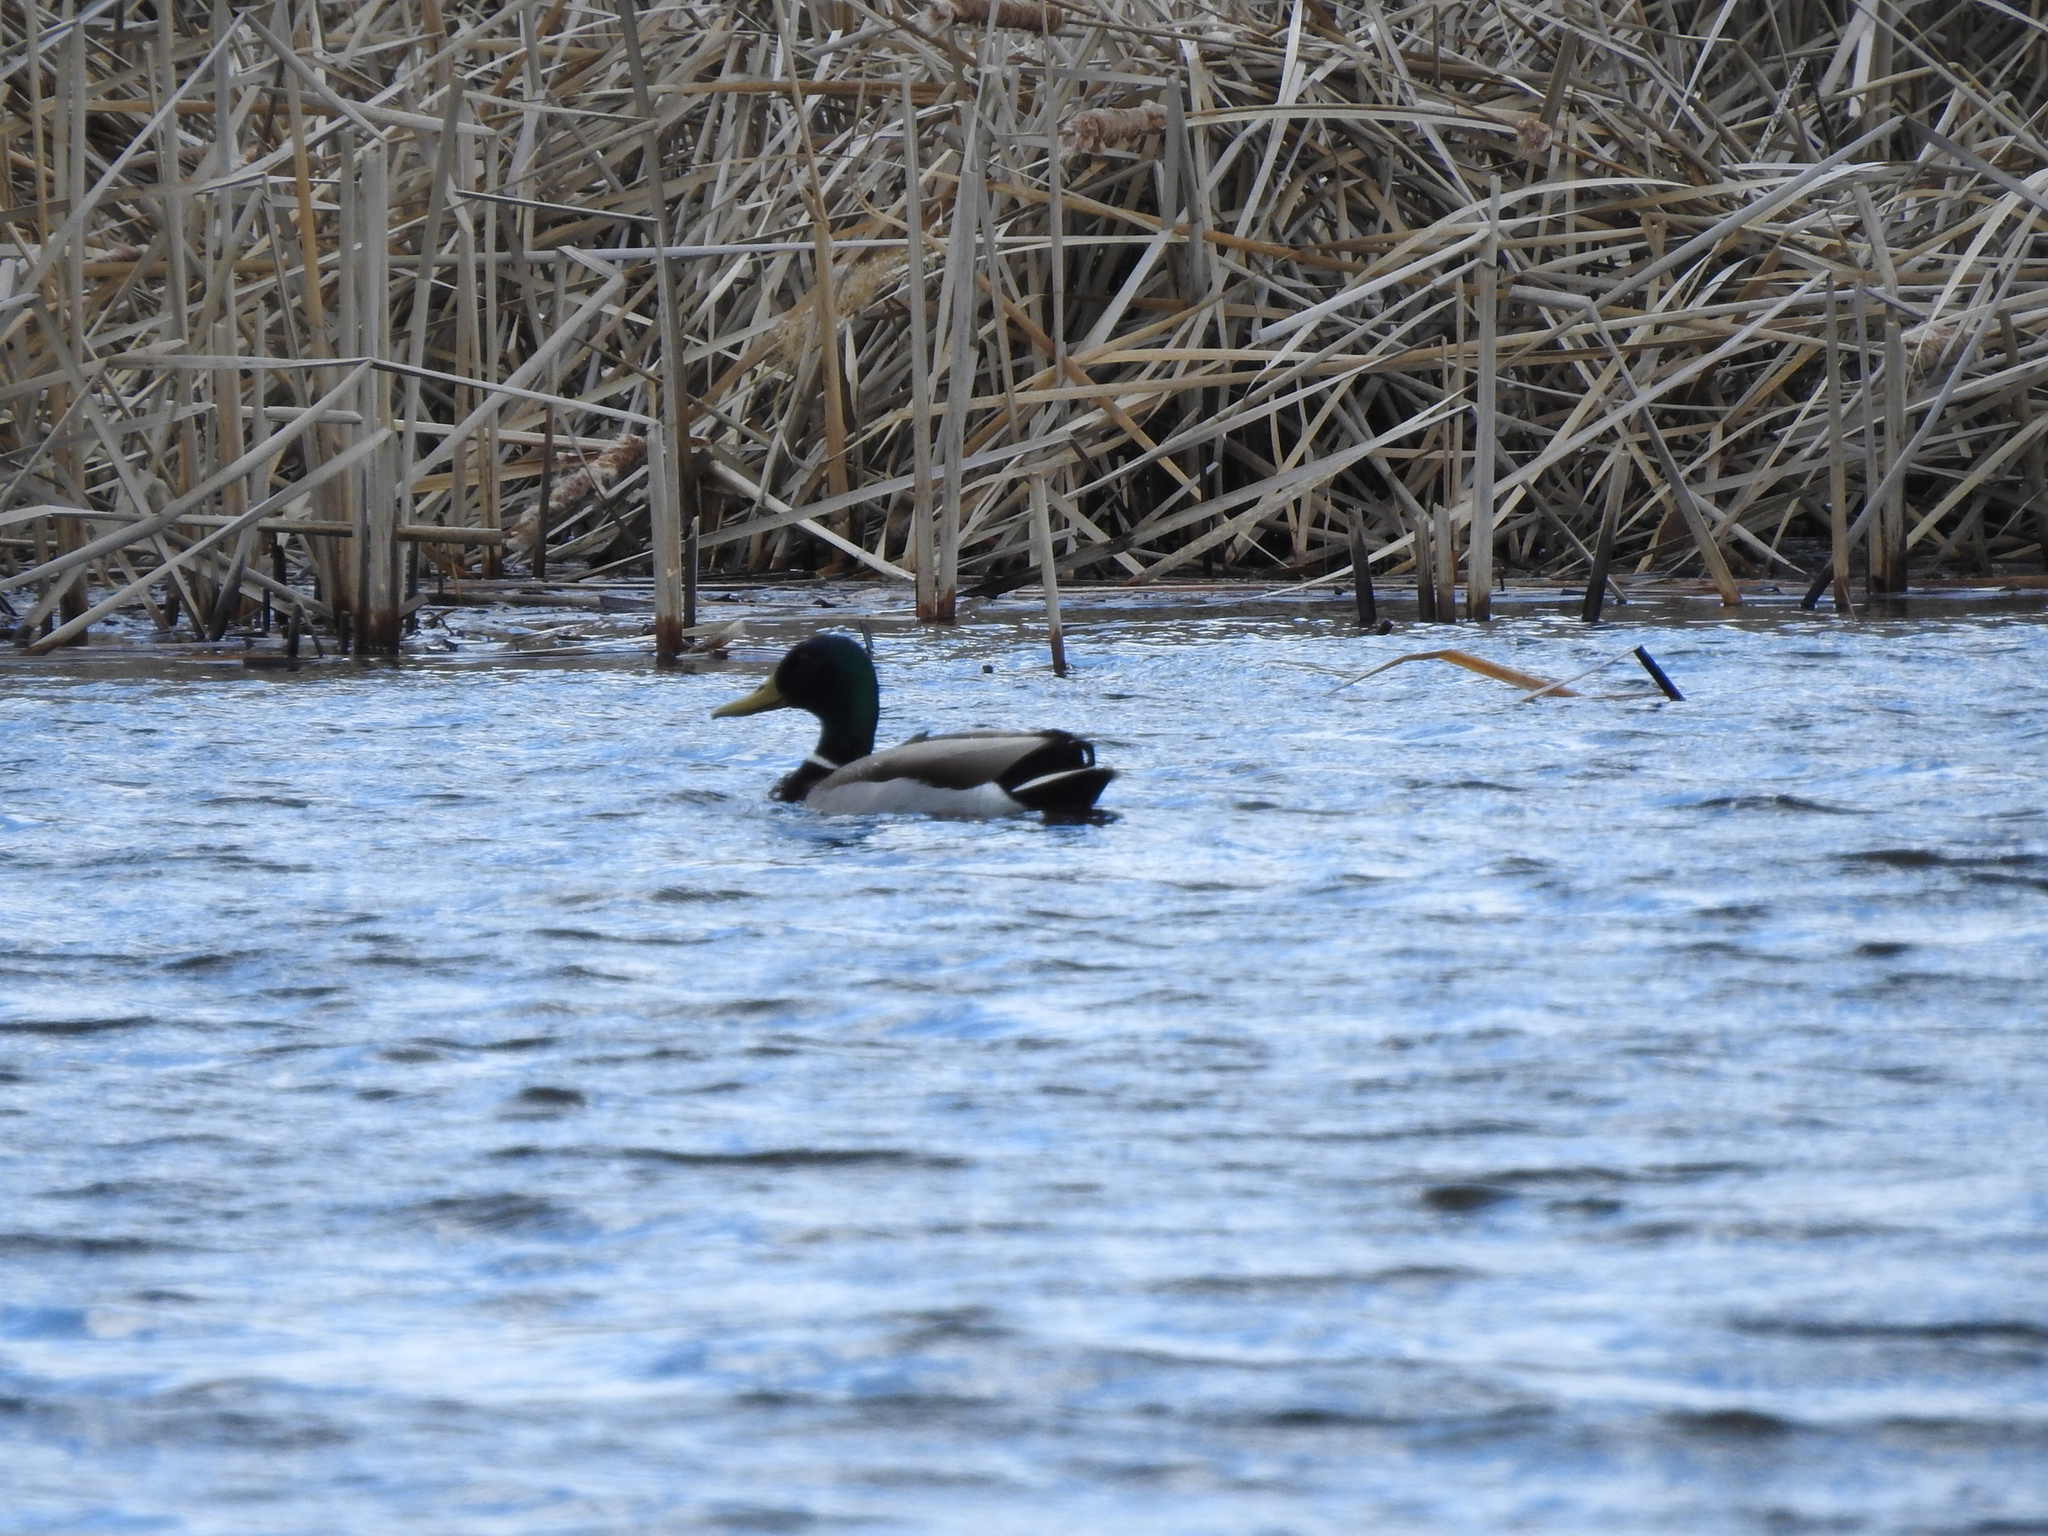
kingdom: Animalia
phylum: Chordata
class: Aves
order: Anseriformes
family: Anatidae
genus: Anas
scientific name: Anas platyrhynchos
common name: Mallard
